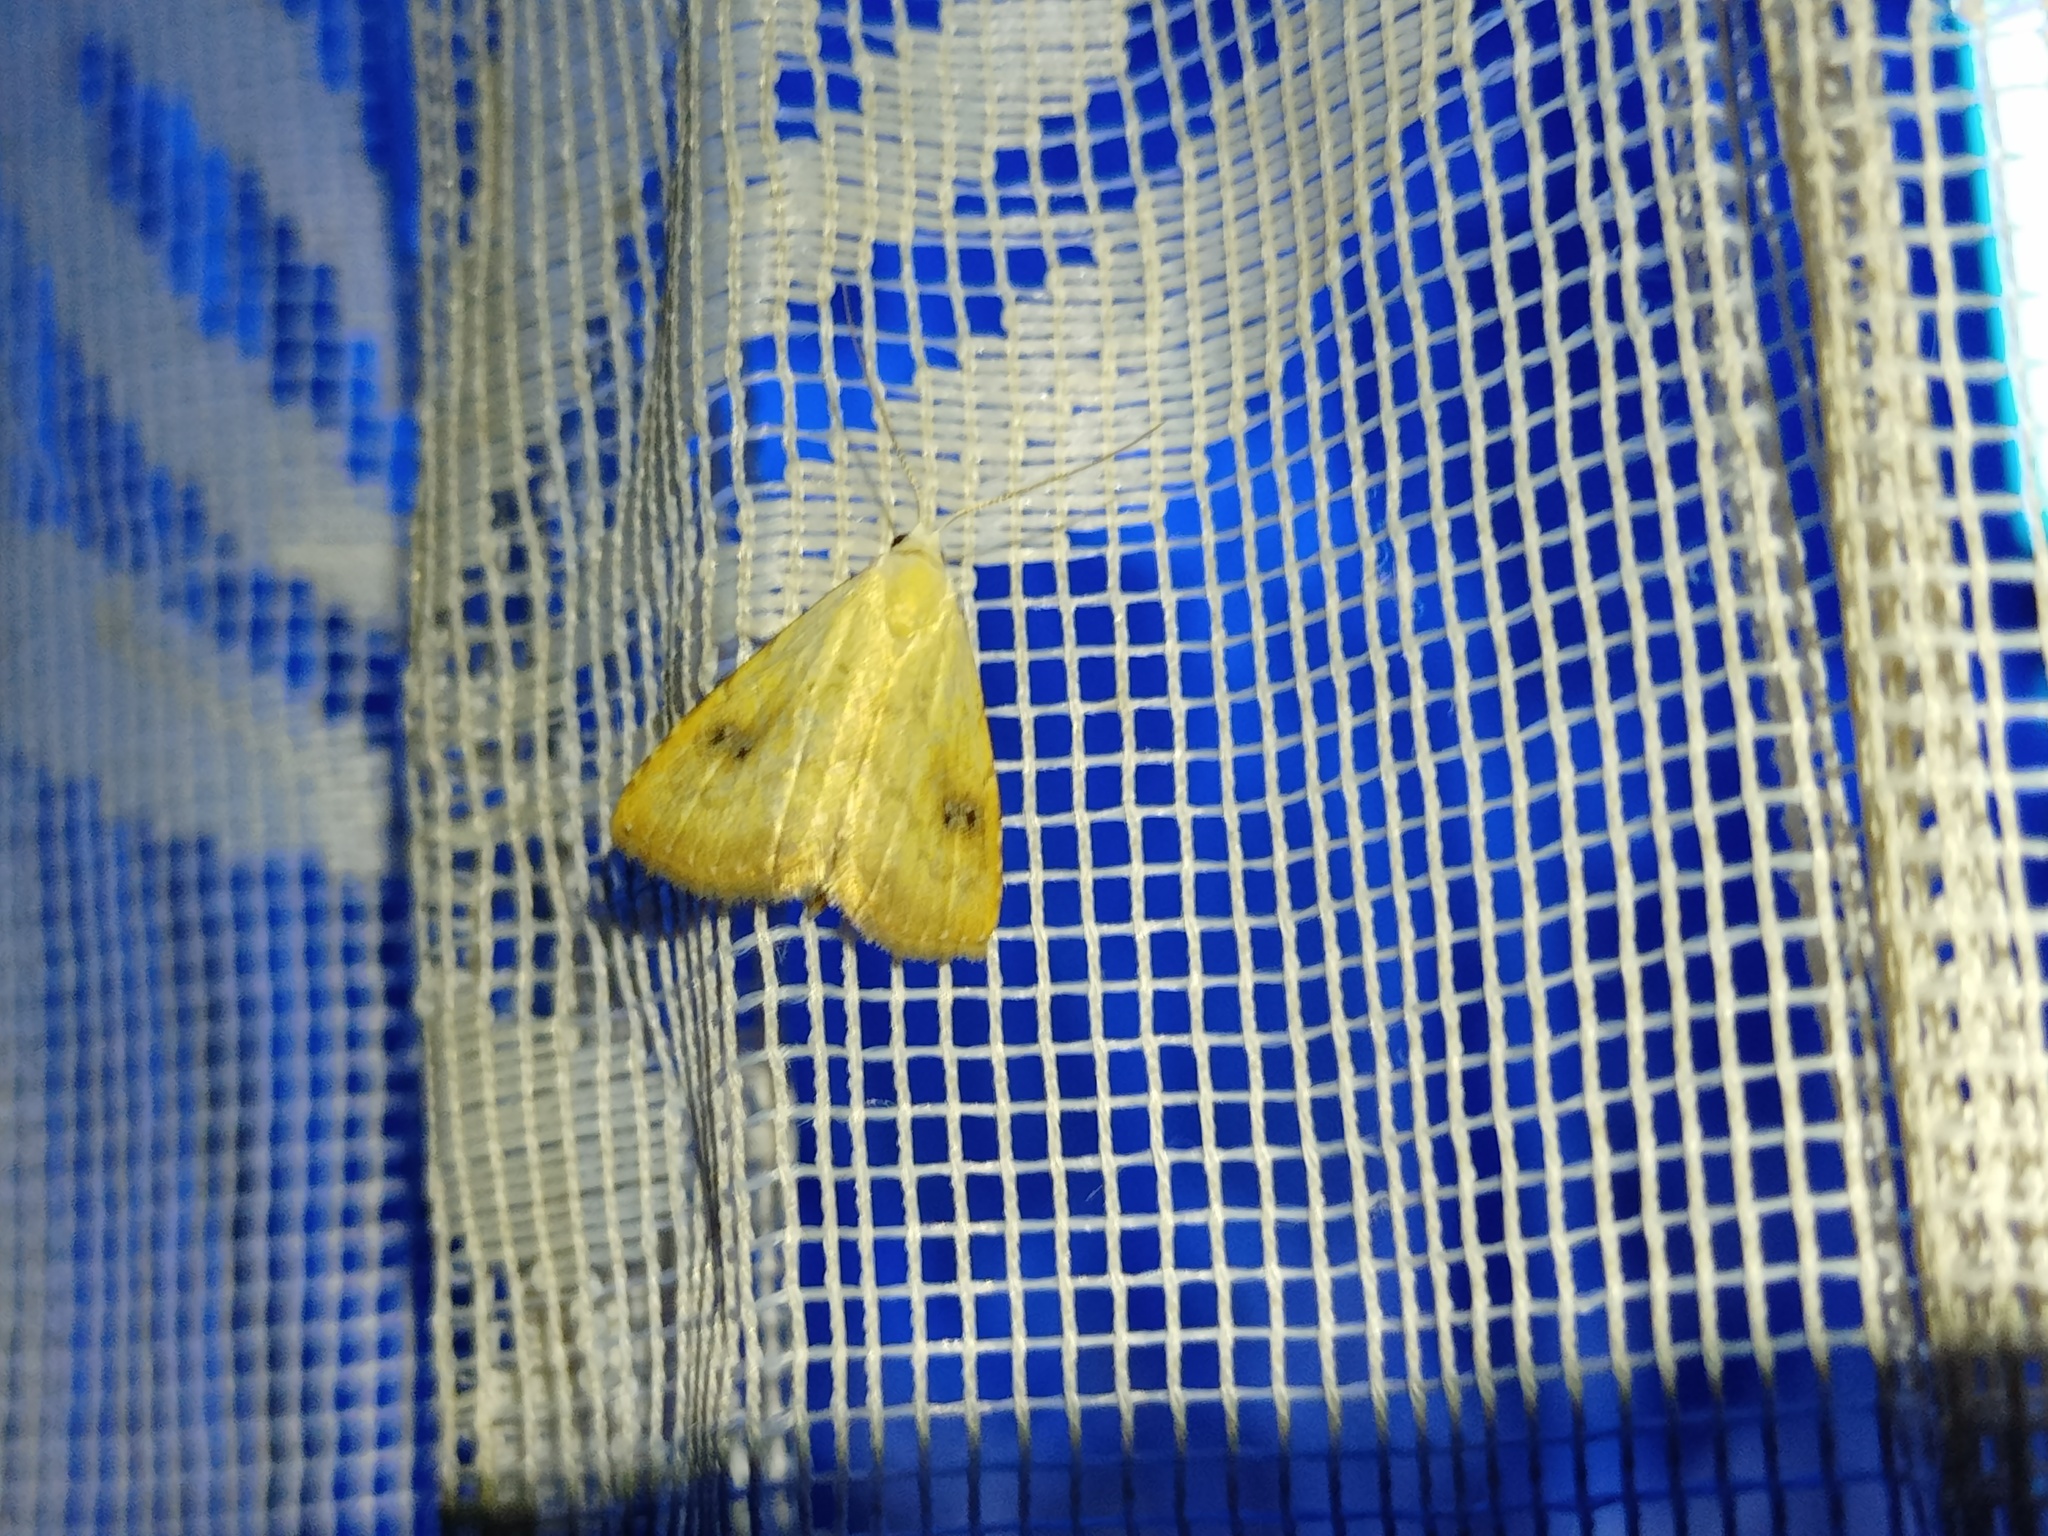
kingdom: Animalia
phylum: Arthropoda
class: Insecta
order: Lepidoptera
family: Erebidae
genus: Rivula
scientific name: Rivula sericealis
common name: Straw dot
